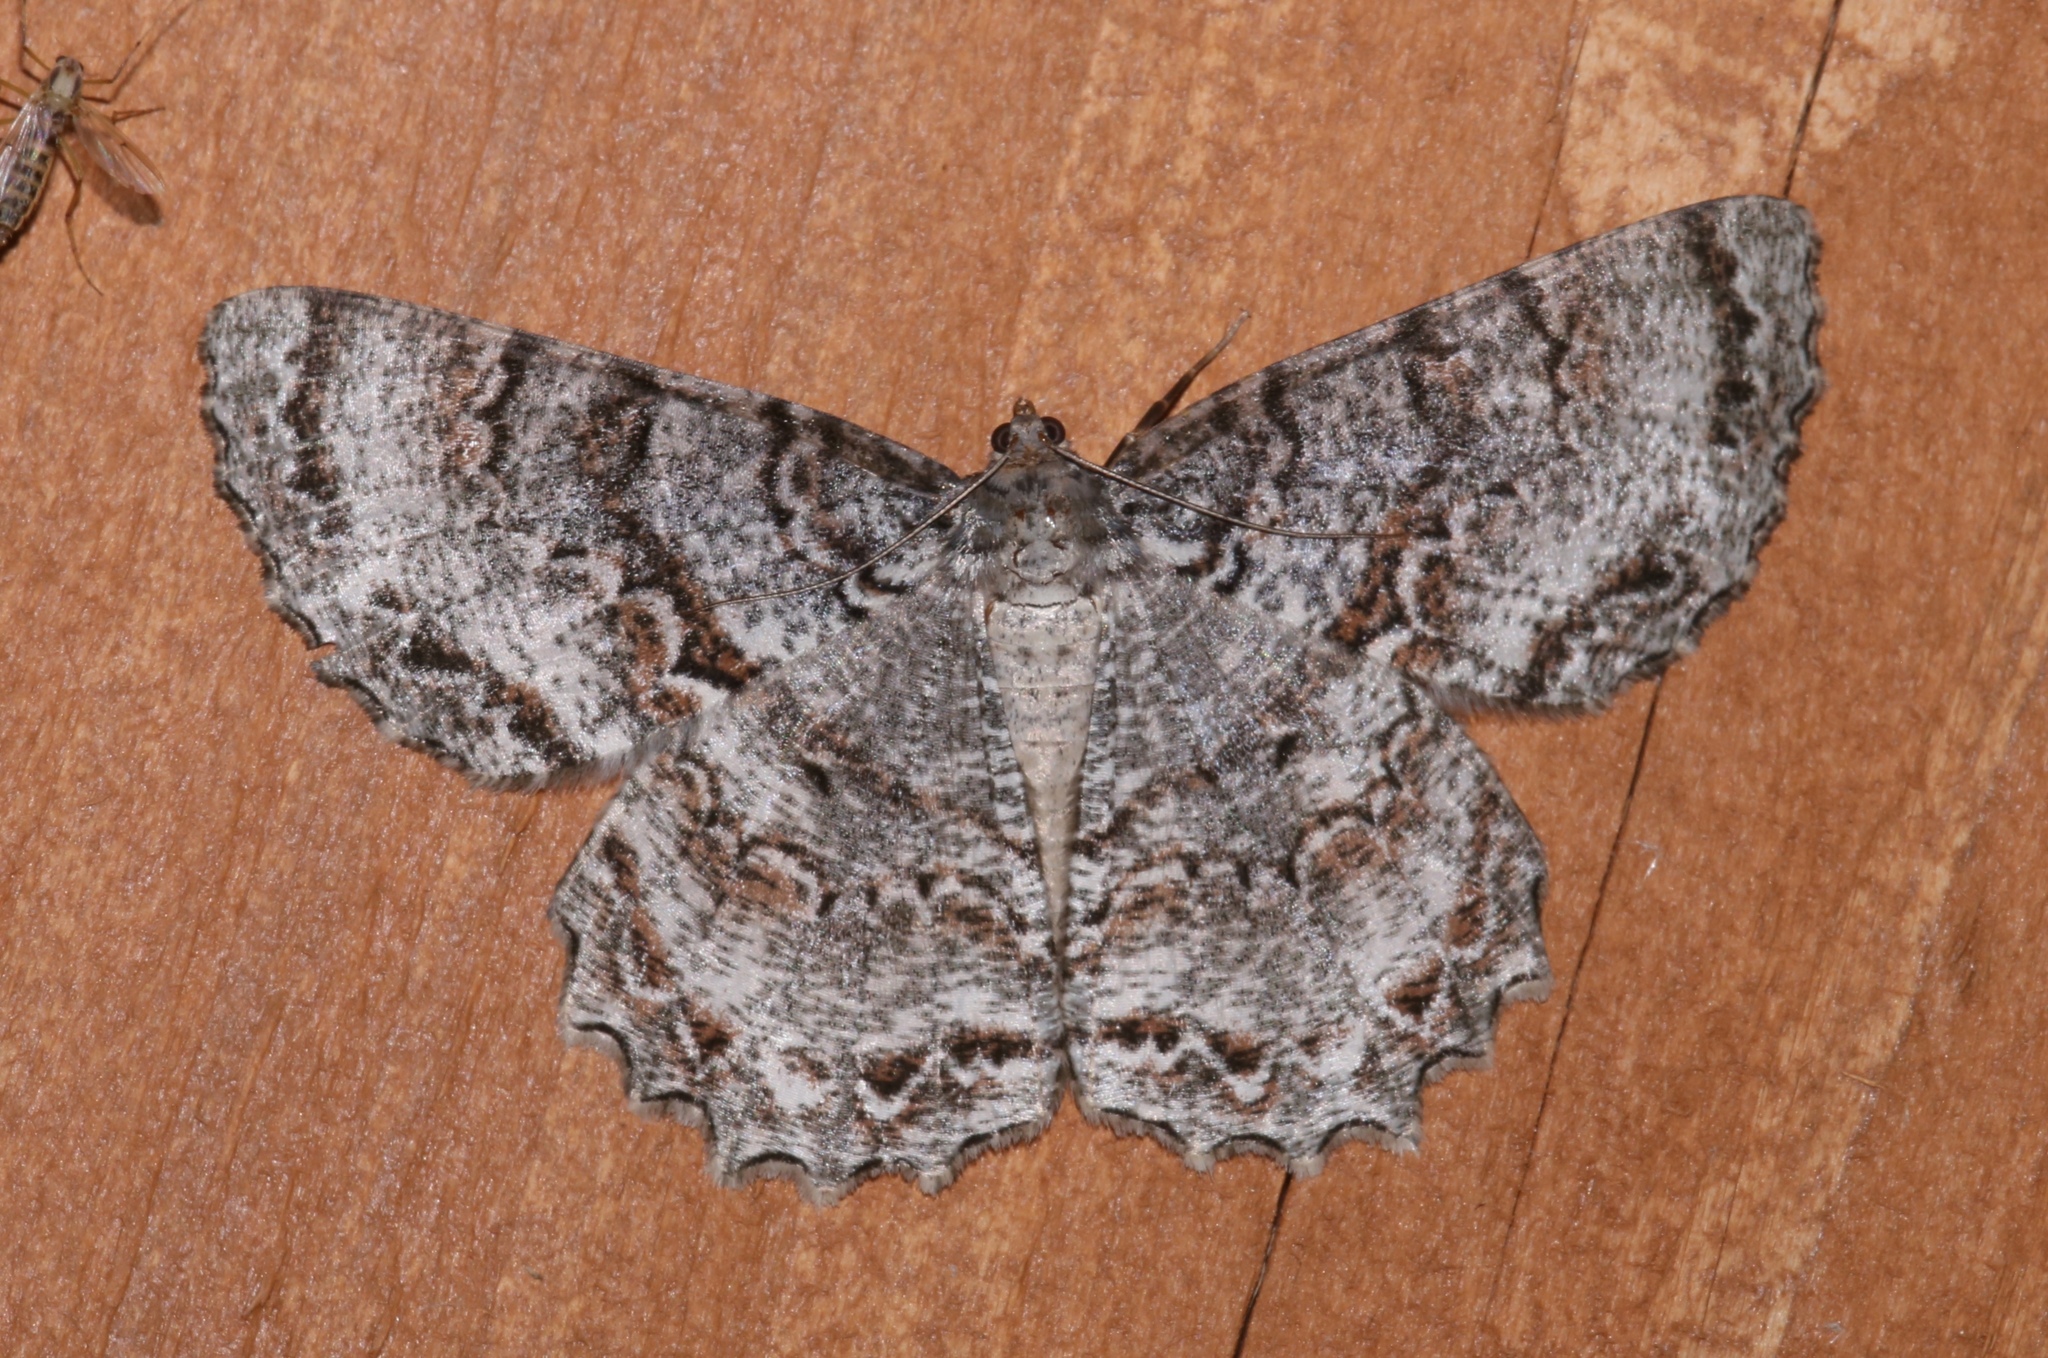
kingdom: Animalia
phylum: Arthropoda
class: Insecta
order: Lepidoptera
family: Geometridae
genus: Epimecis
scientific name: Epimecis hortaria
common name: Tulip-tree beauty
